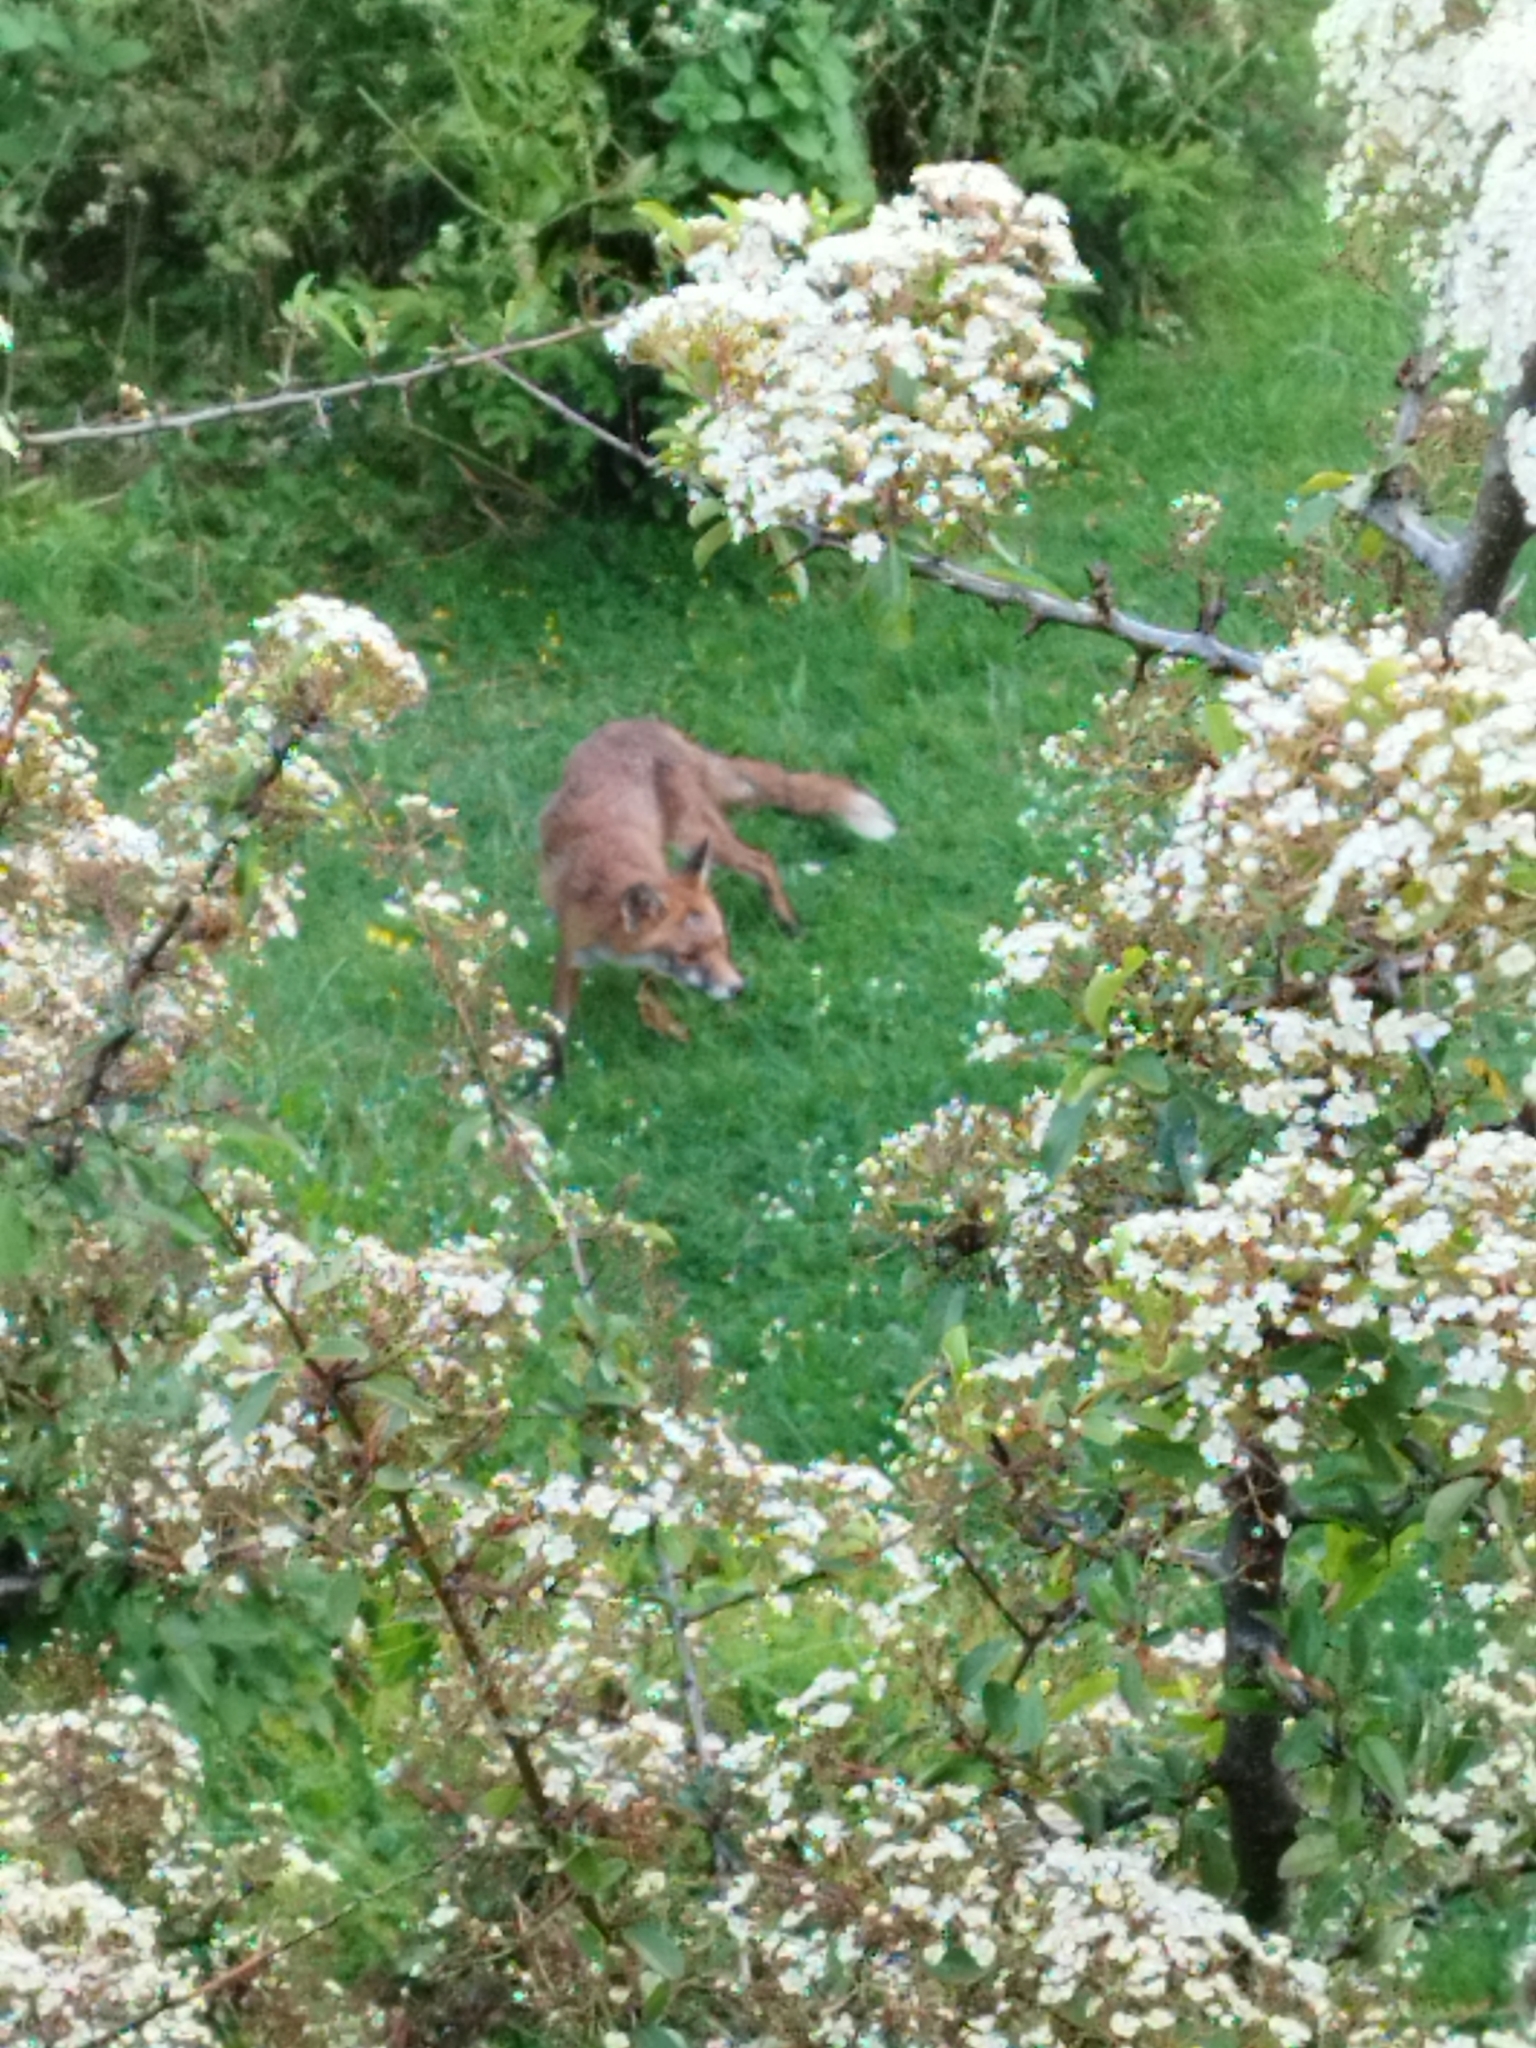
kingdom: Animalia
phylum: Chordata
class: Mammalia
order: Carnivora
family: Canidae
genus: Vulpes
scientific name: Vulpes vulpes
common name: Red fox
